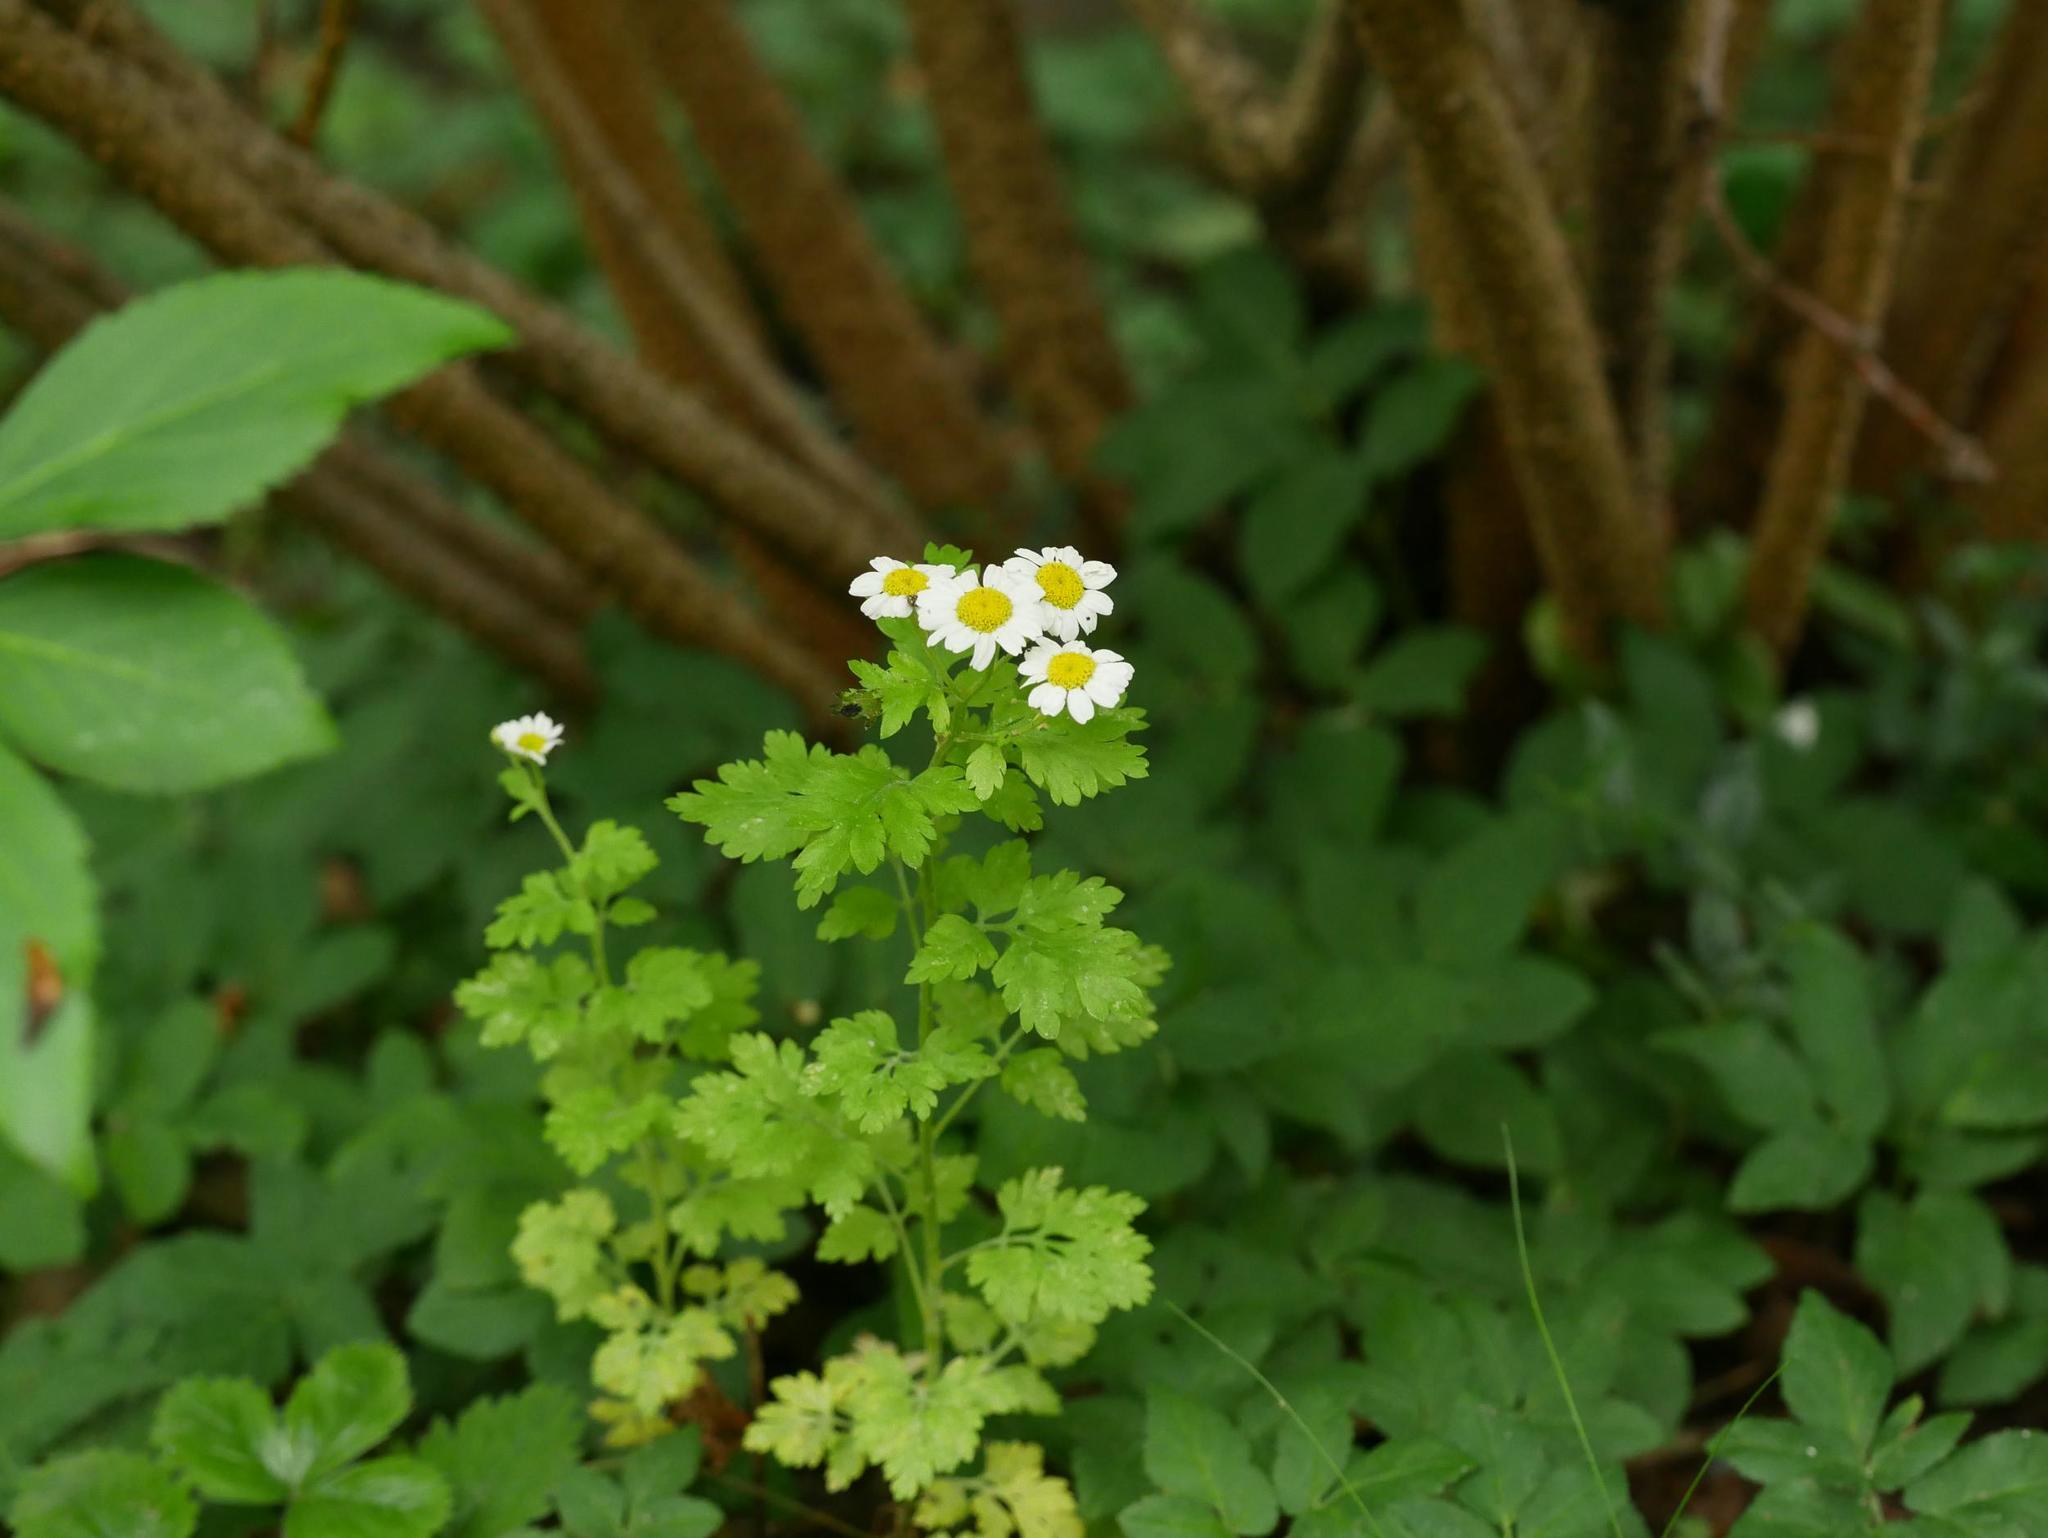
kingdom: Plantae
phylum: Tracheophyta
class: Magnoliopsida
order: Asterales
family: Asteraceae
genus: Tanacetum
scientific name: Tanacetum parthenium
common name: Feverfew
